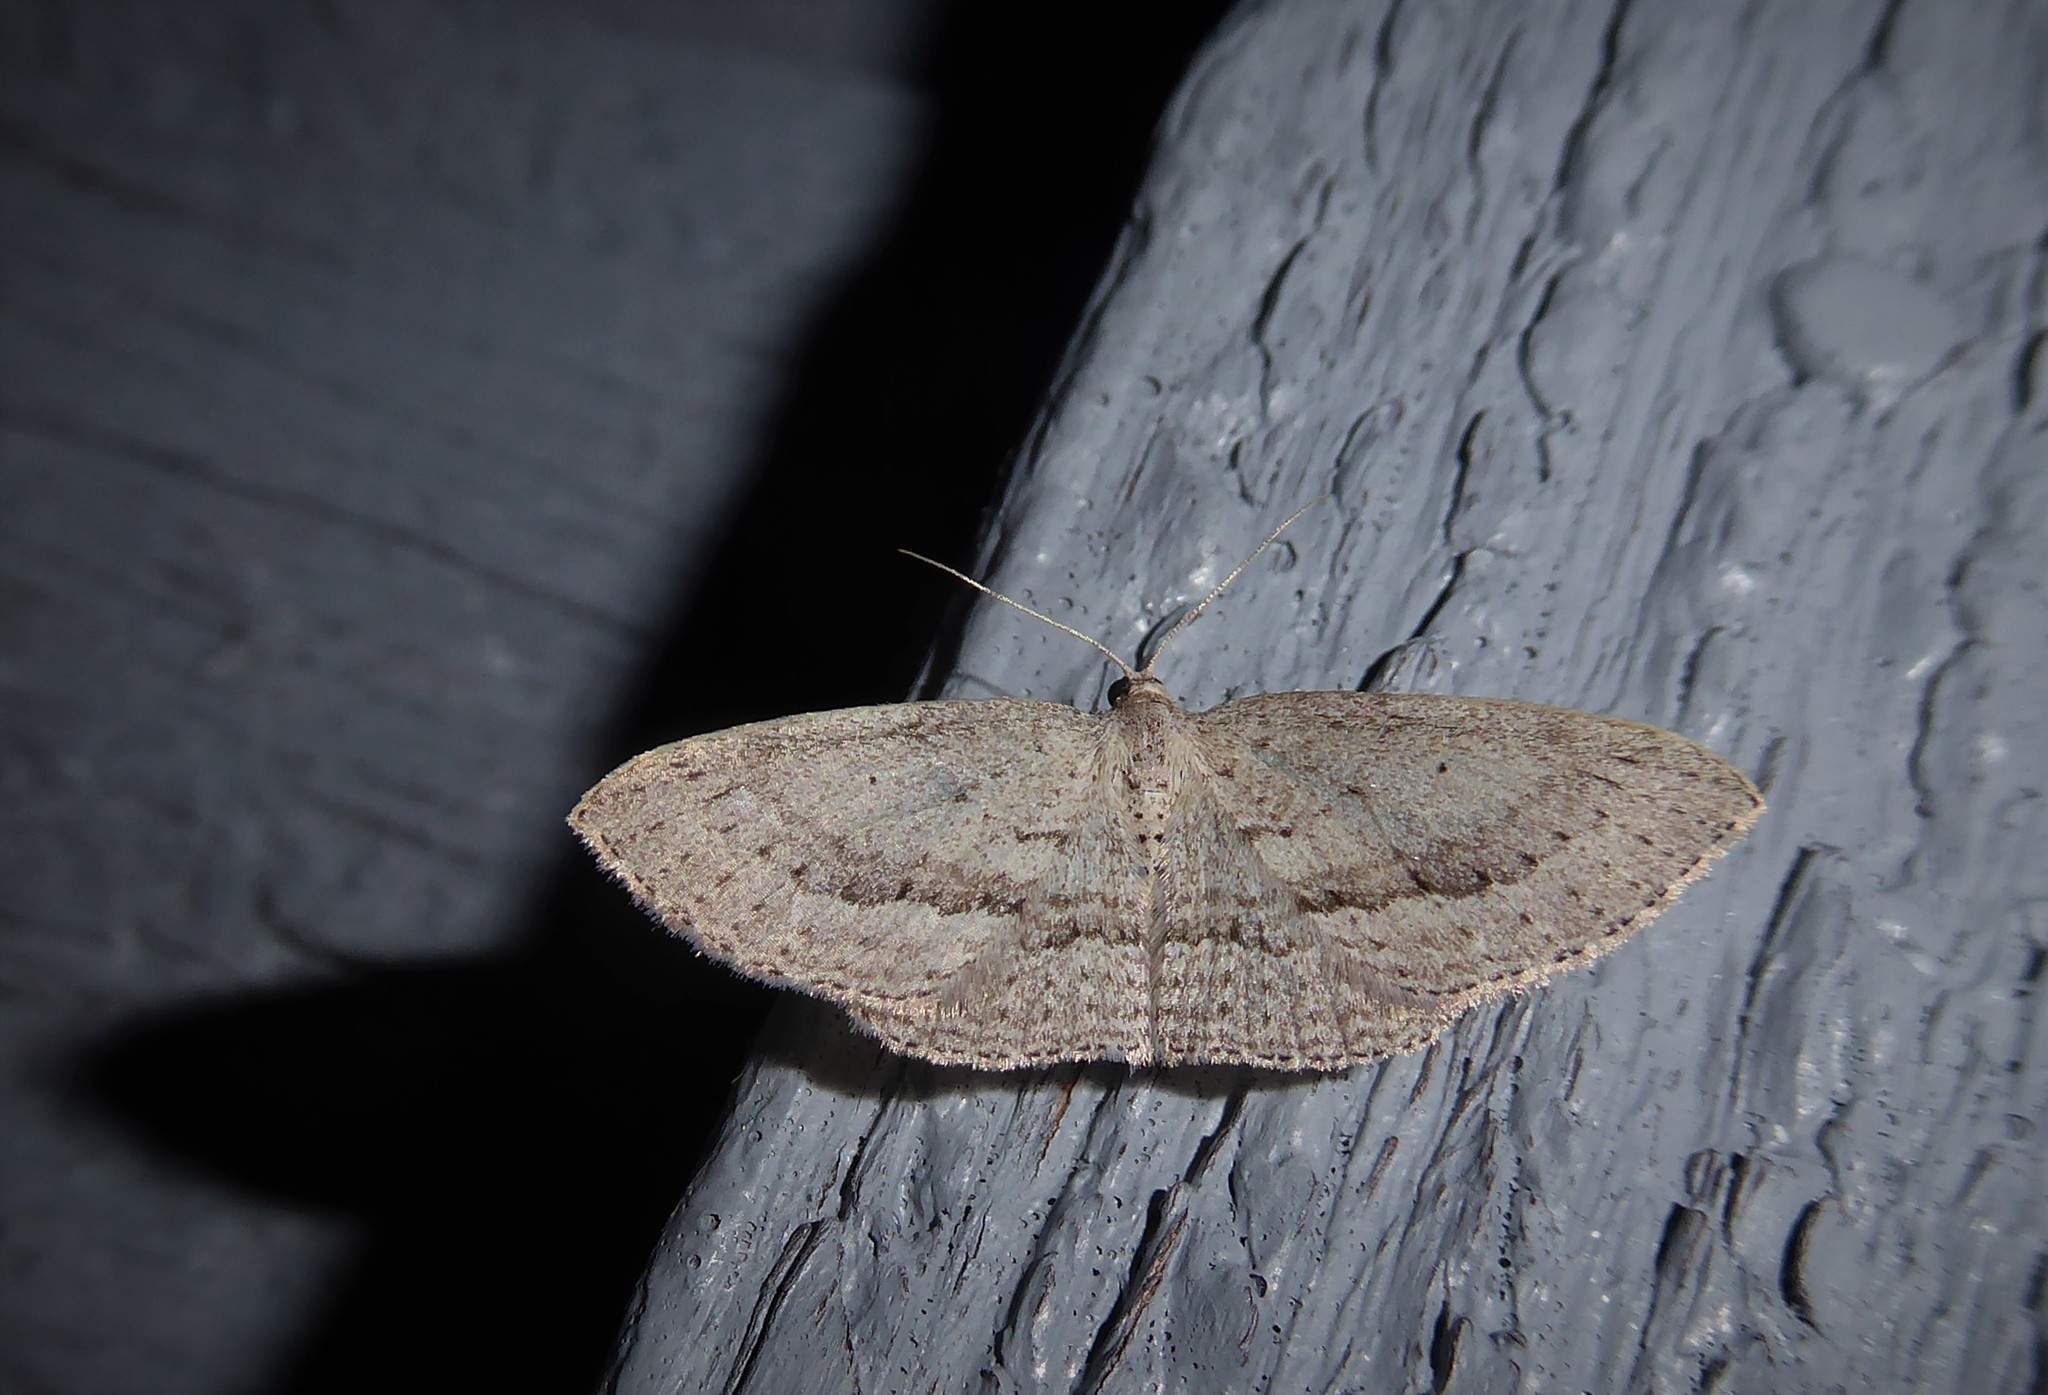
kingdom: Animalia
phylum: Arthropoda
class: Insecta
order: Lepidoptera
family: Geometridae
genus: Poecilasthena
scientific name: Poecilasthena schistaria
